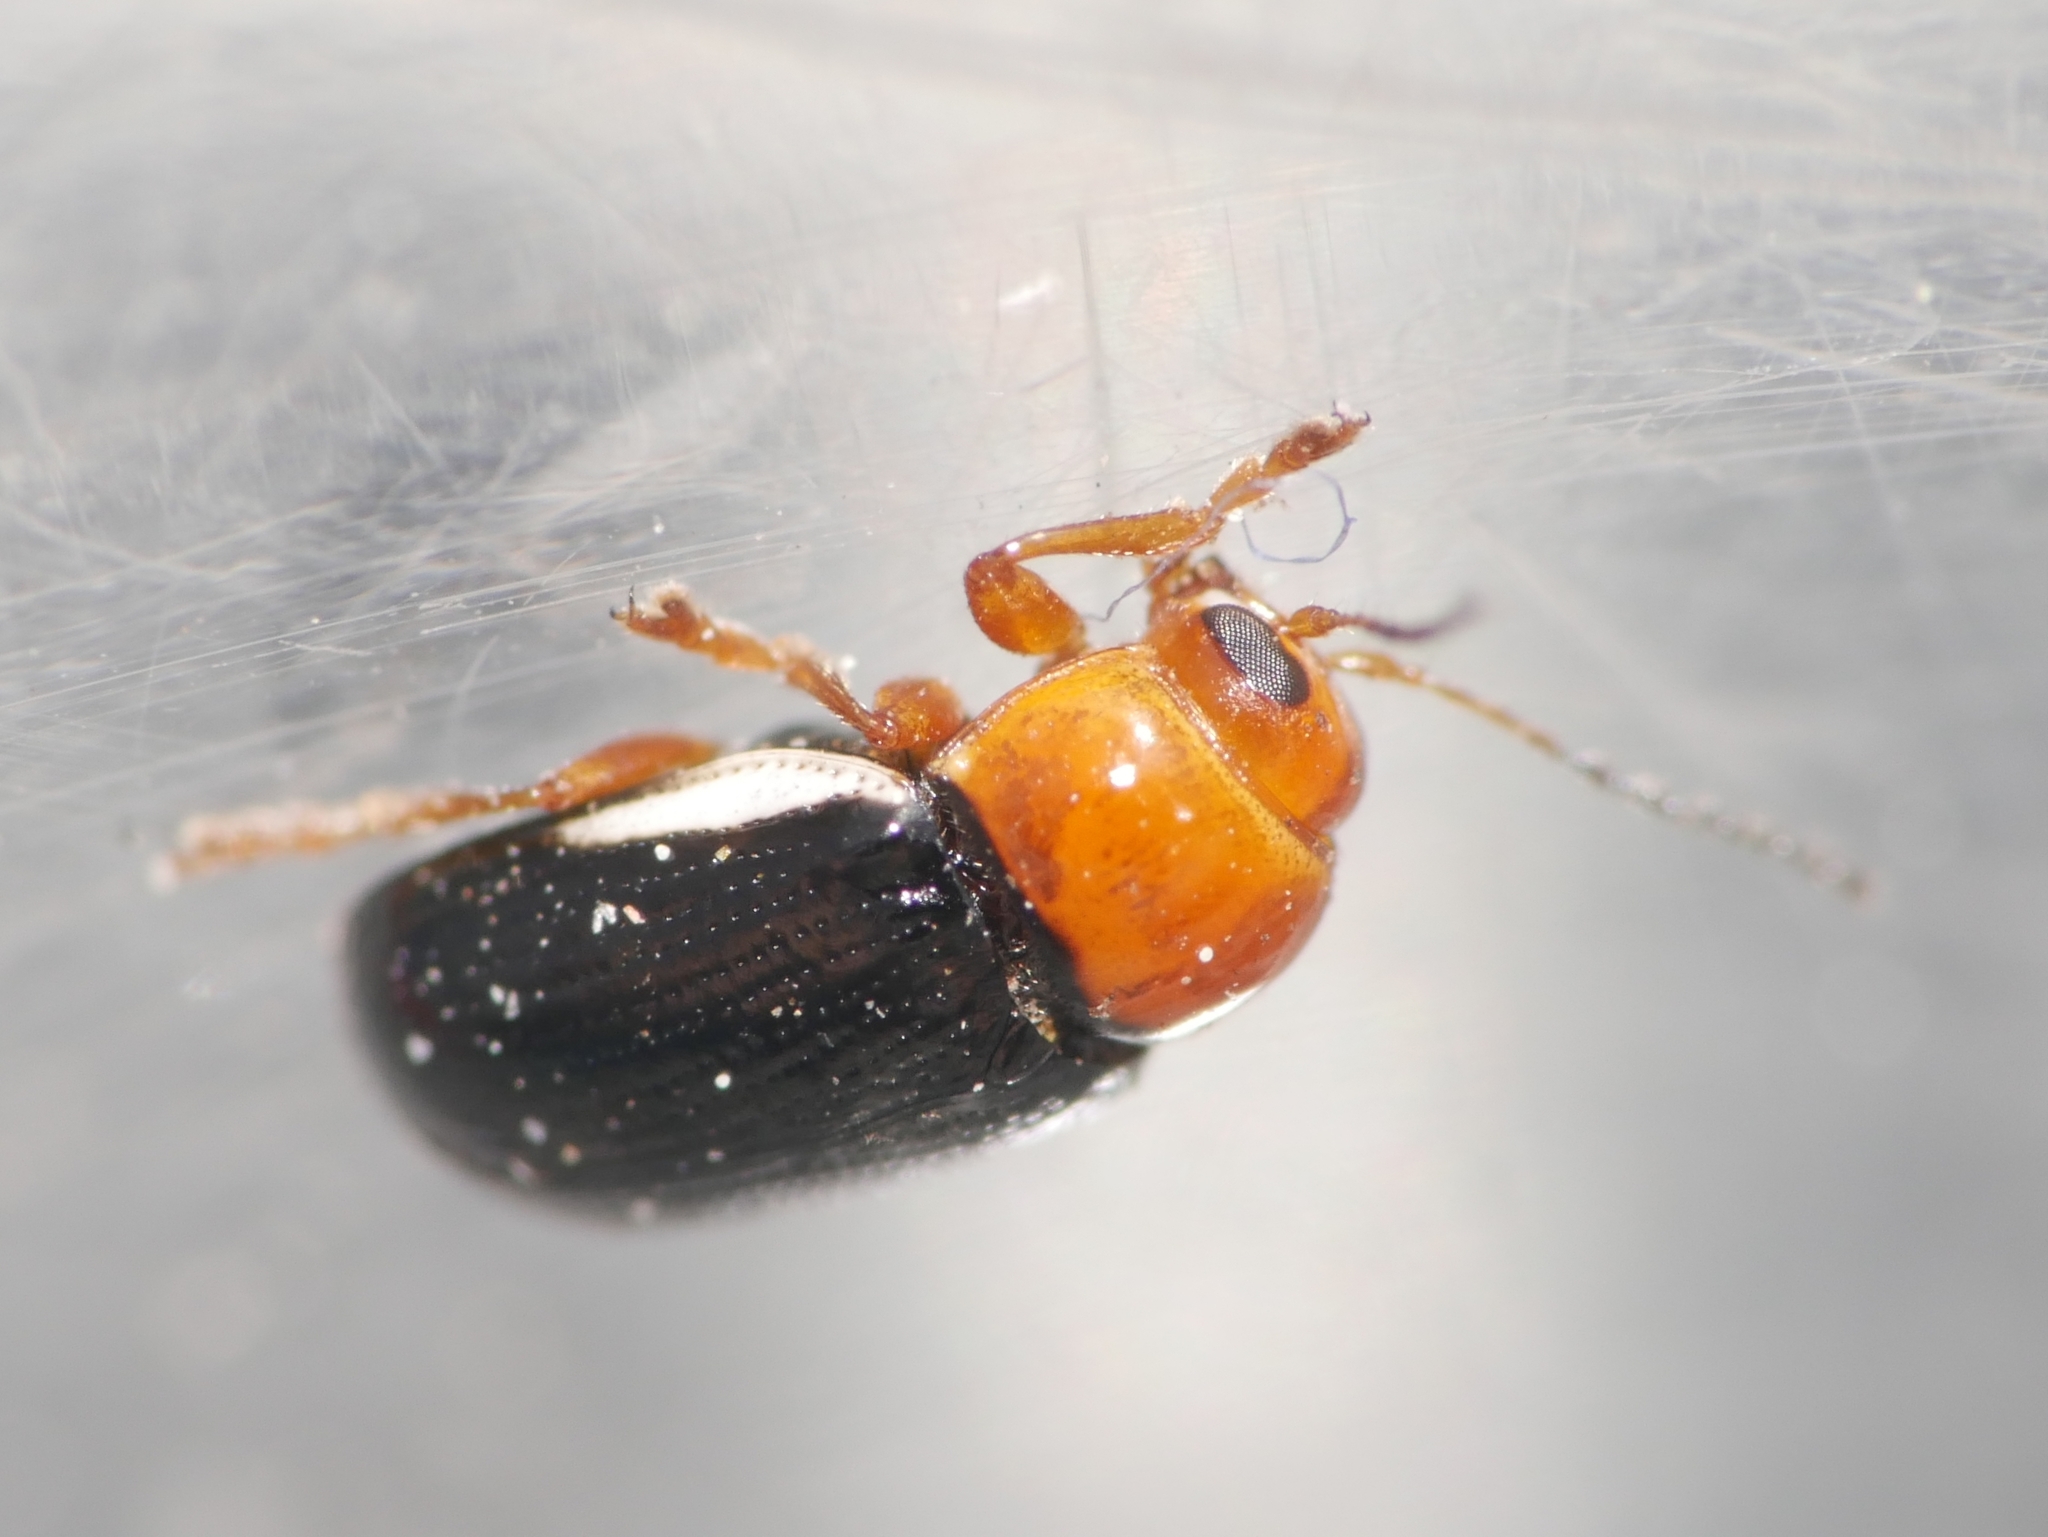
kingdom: Animalia
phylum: Arthropoda
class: Insecta
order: Coleoptera
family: Chrysomelidae
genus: Cryptocephalus
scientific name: Cryptocephalus rufipes
